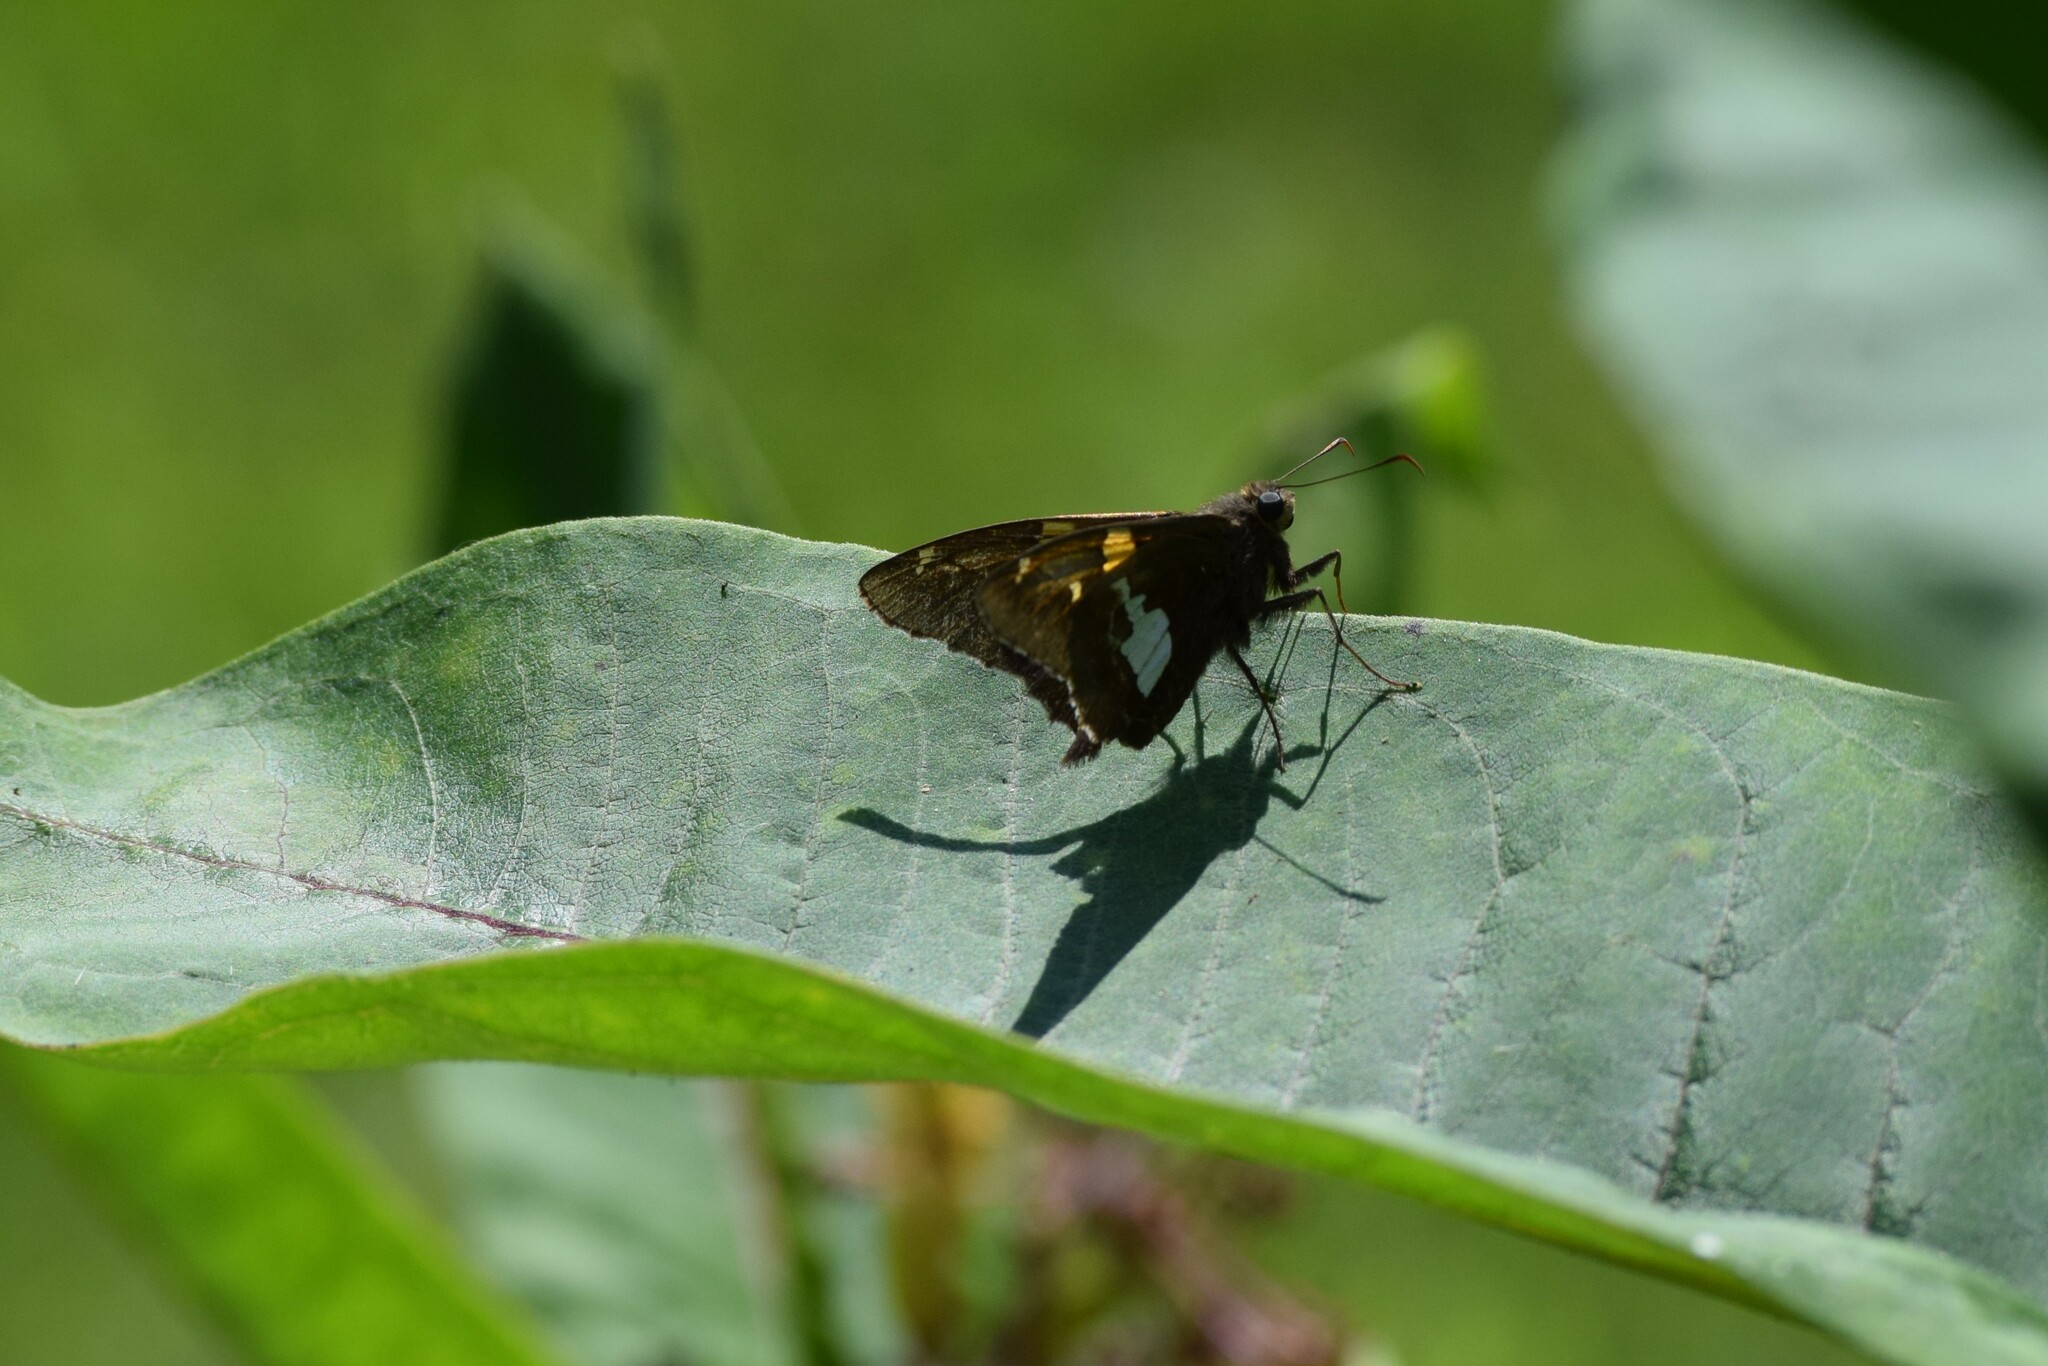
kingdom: Animalia
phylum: Arthropoda
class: Insecta
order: Lepidoptera
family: Hesperiidae
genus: Epargyreus
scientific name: Epargyreus clarus
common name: Silver-spotted skipper
